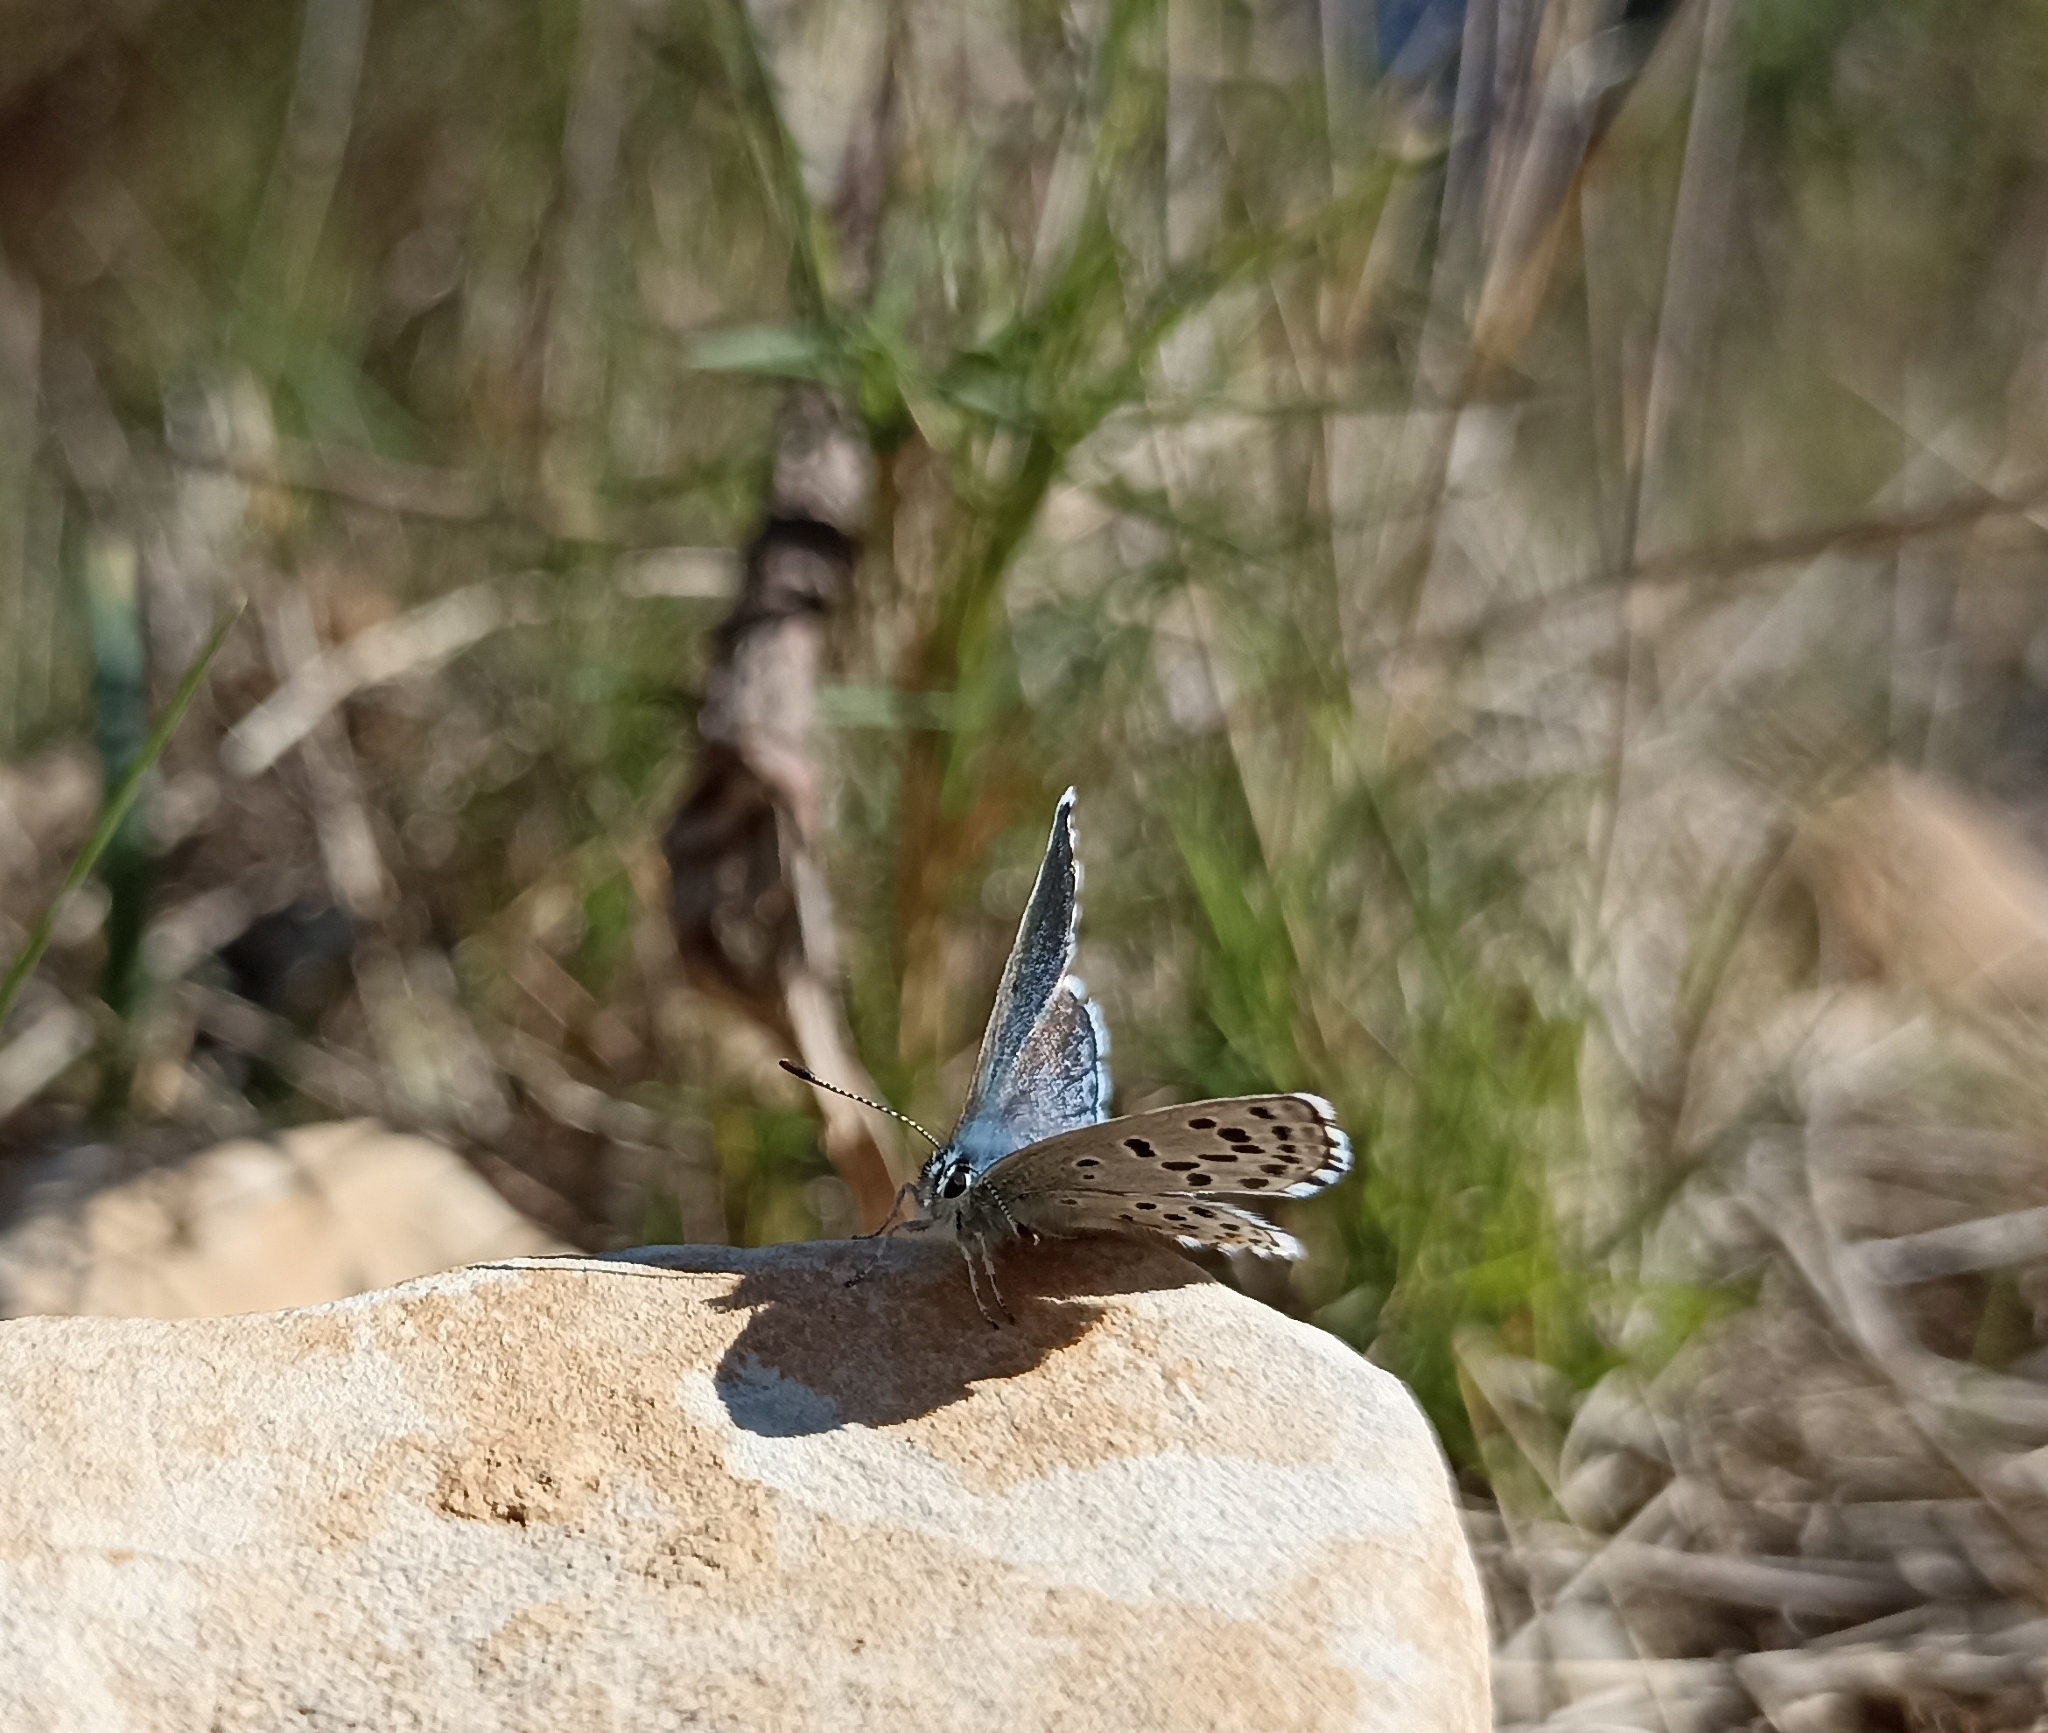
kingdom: Animalia
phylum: Arthropoda
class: Insecta
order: Lepidoptera
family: Lycaenidae
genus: Pseudophilotes
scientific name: Pseudophilotes baton
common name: Baton blue
